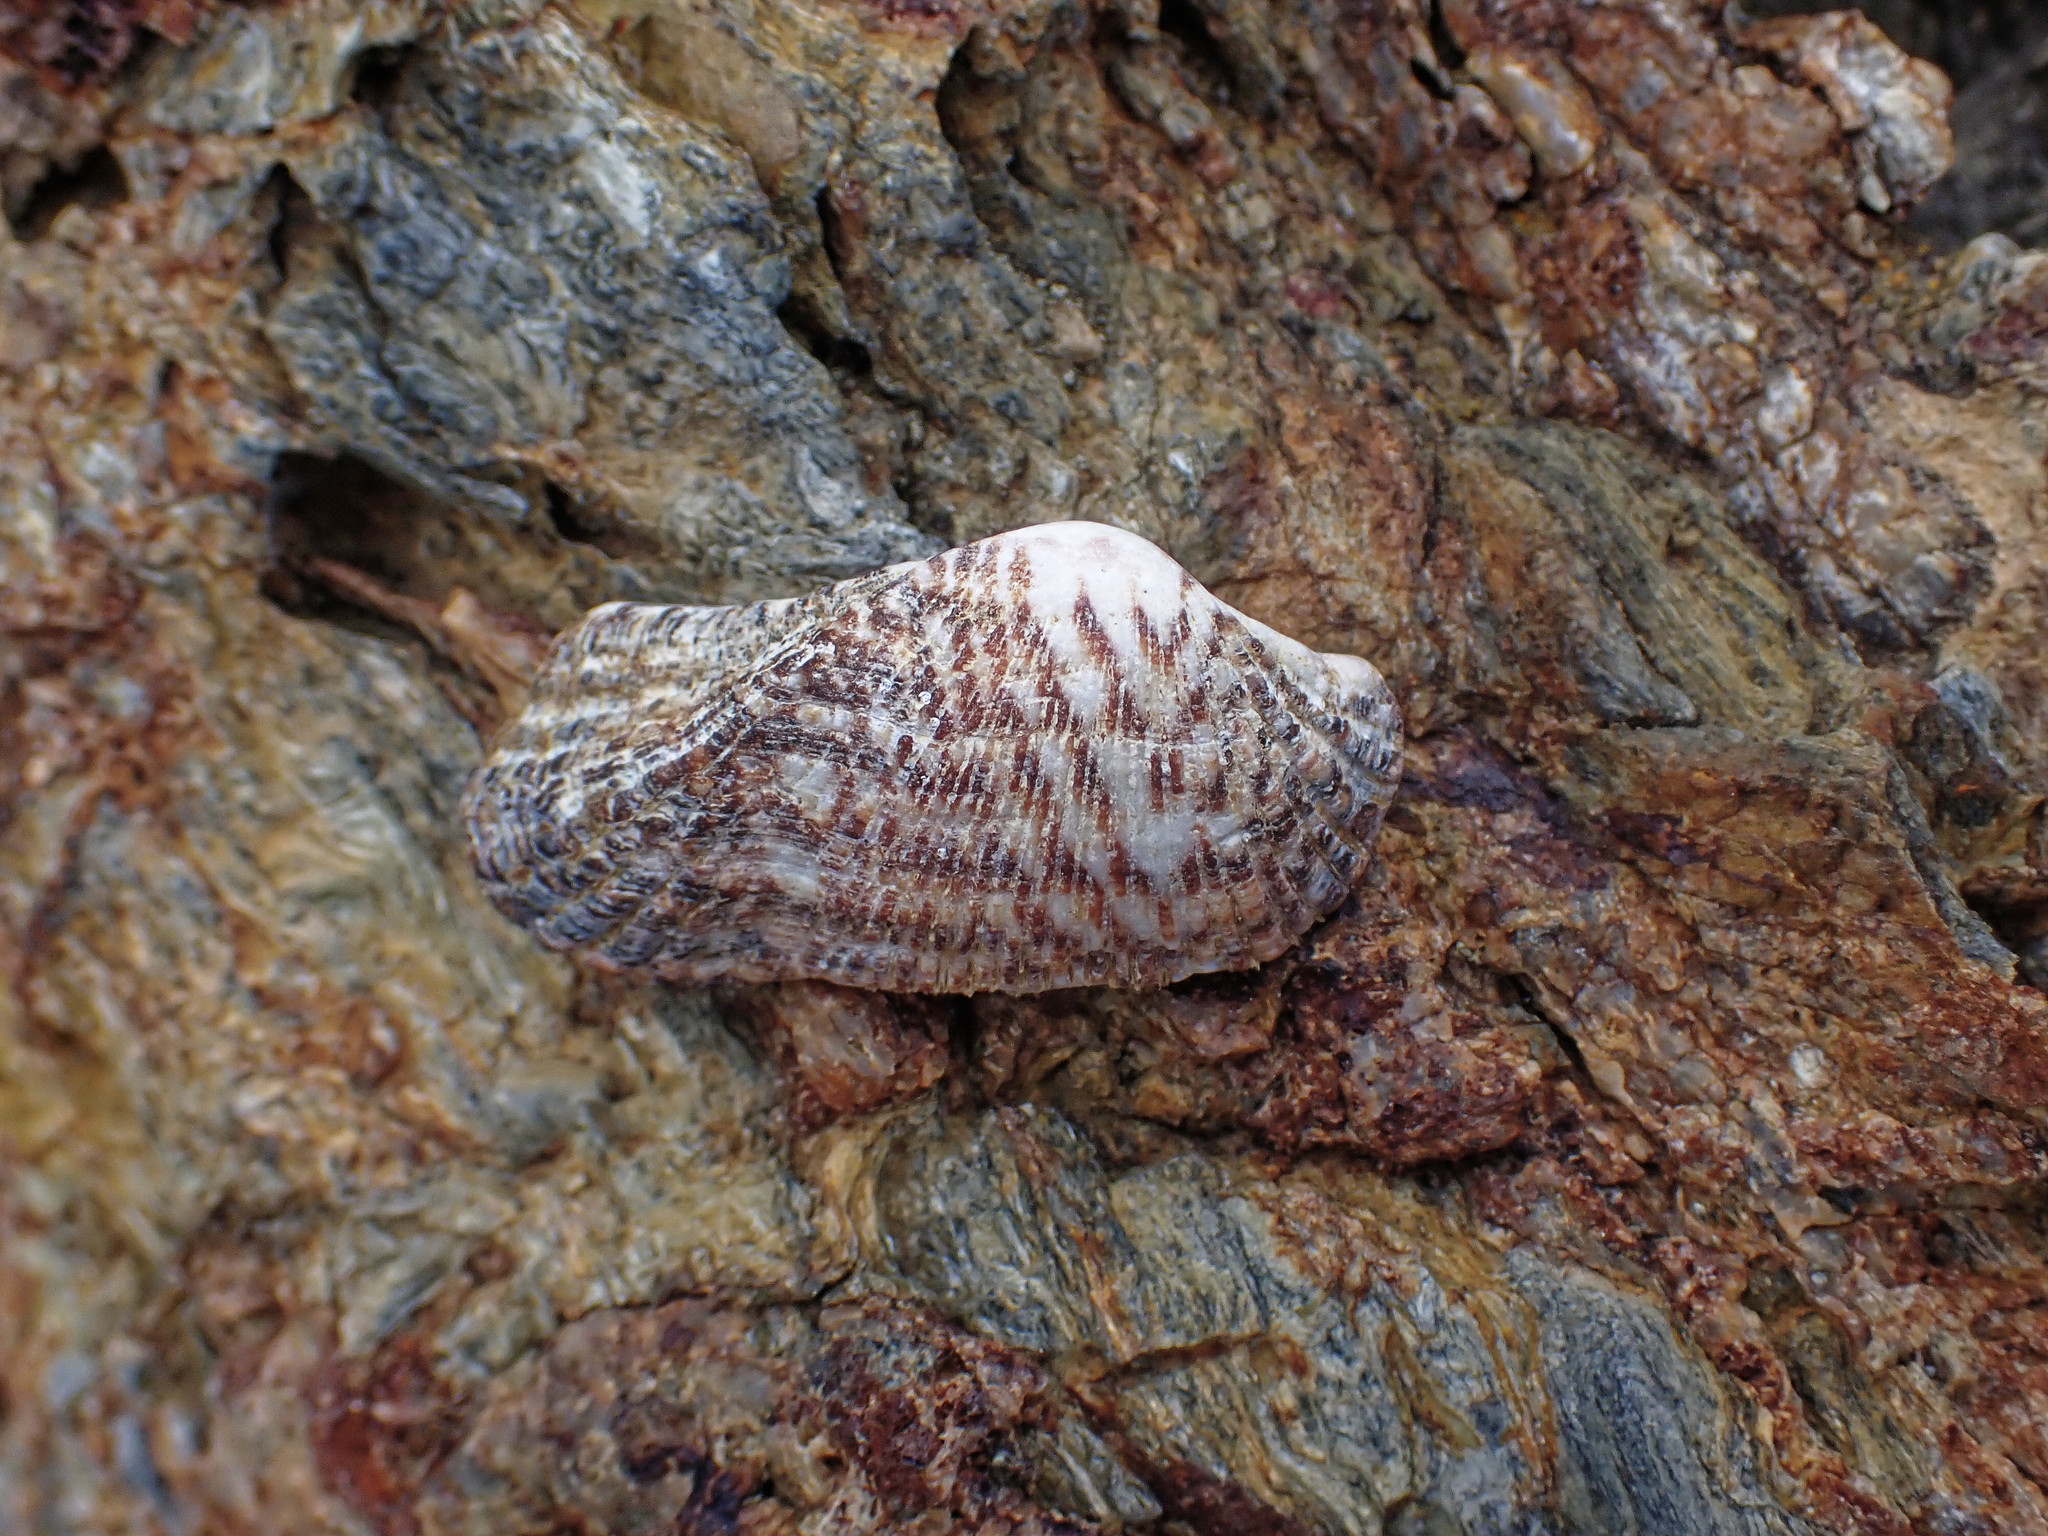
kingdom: Animalia
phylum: Mollusca
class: Bivalvia
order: Arcida
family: Arcidae
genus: Arca
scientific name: Arca noae
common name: Noah's arch
